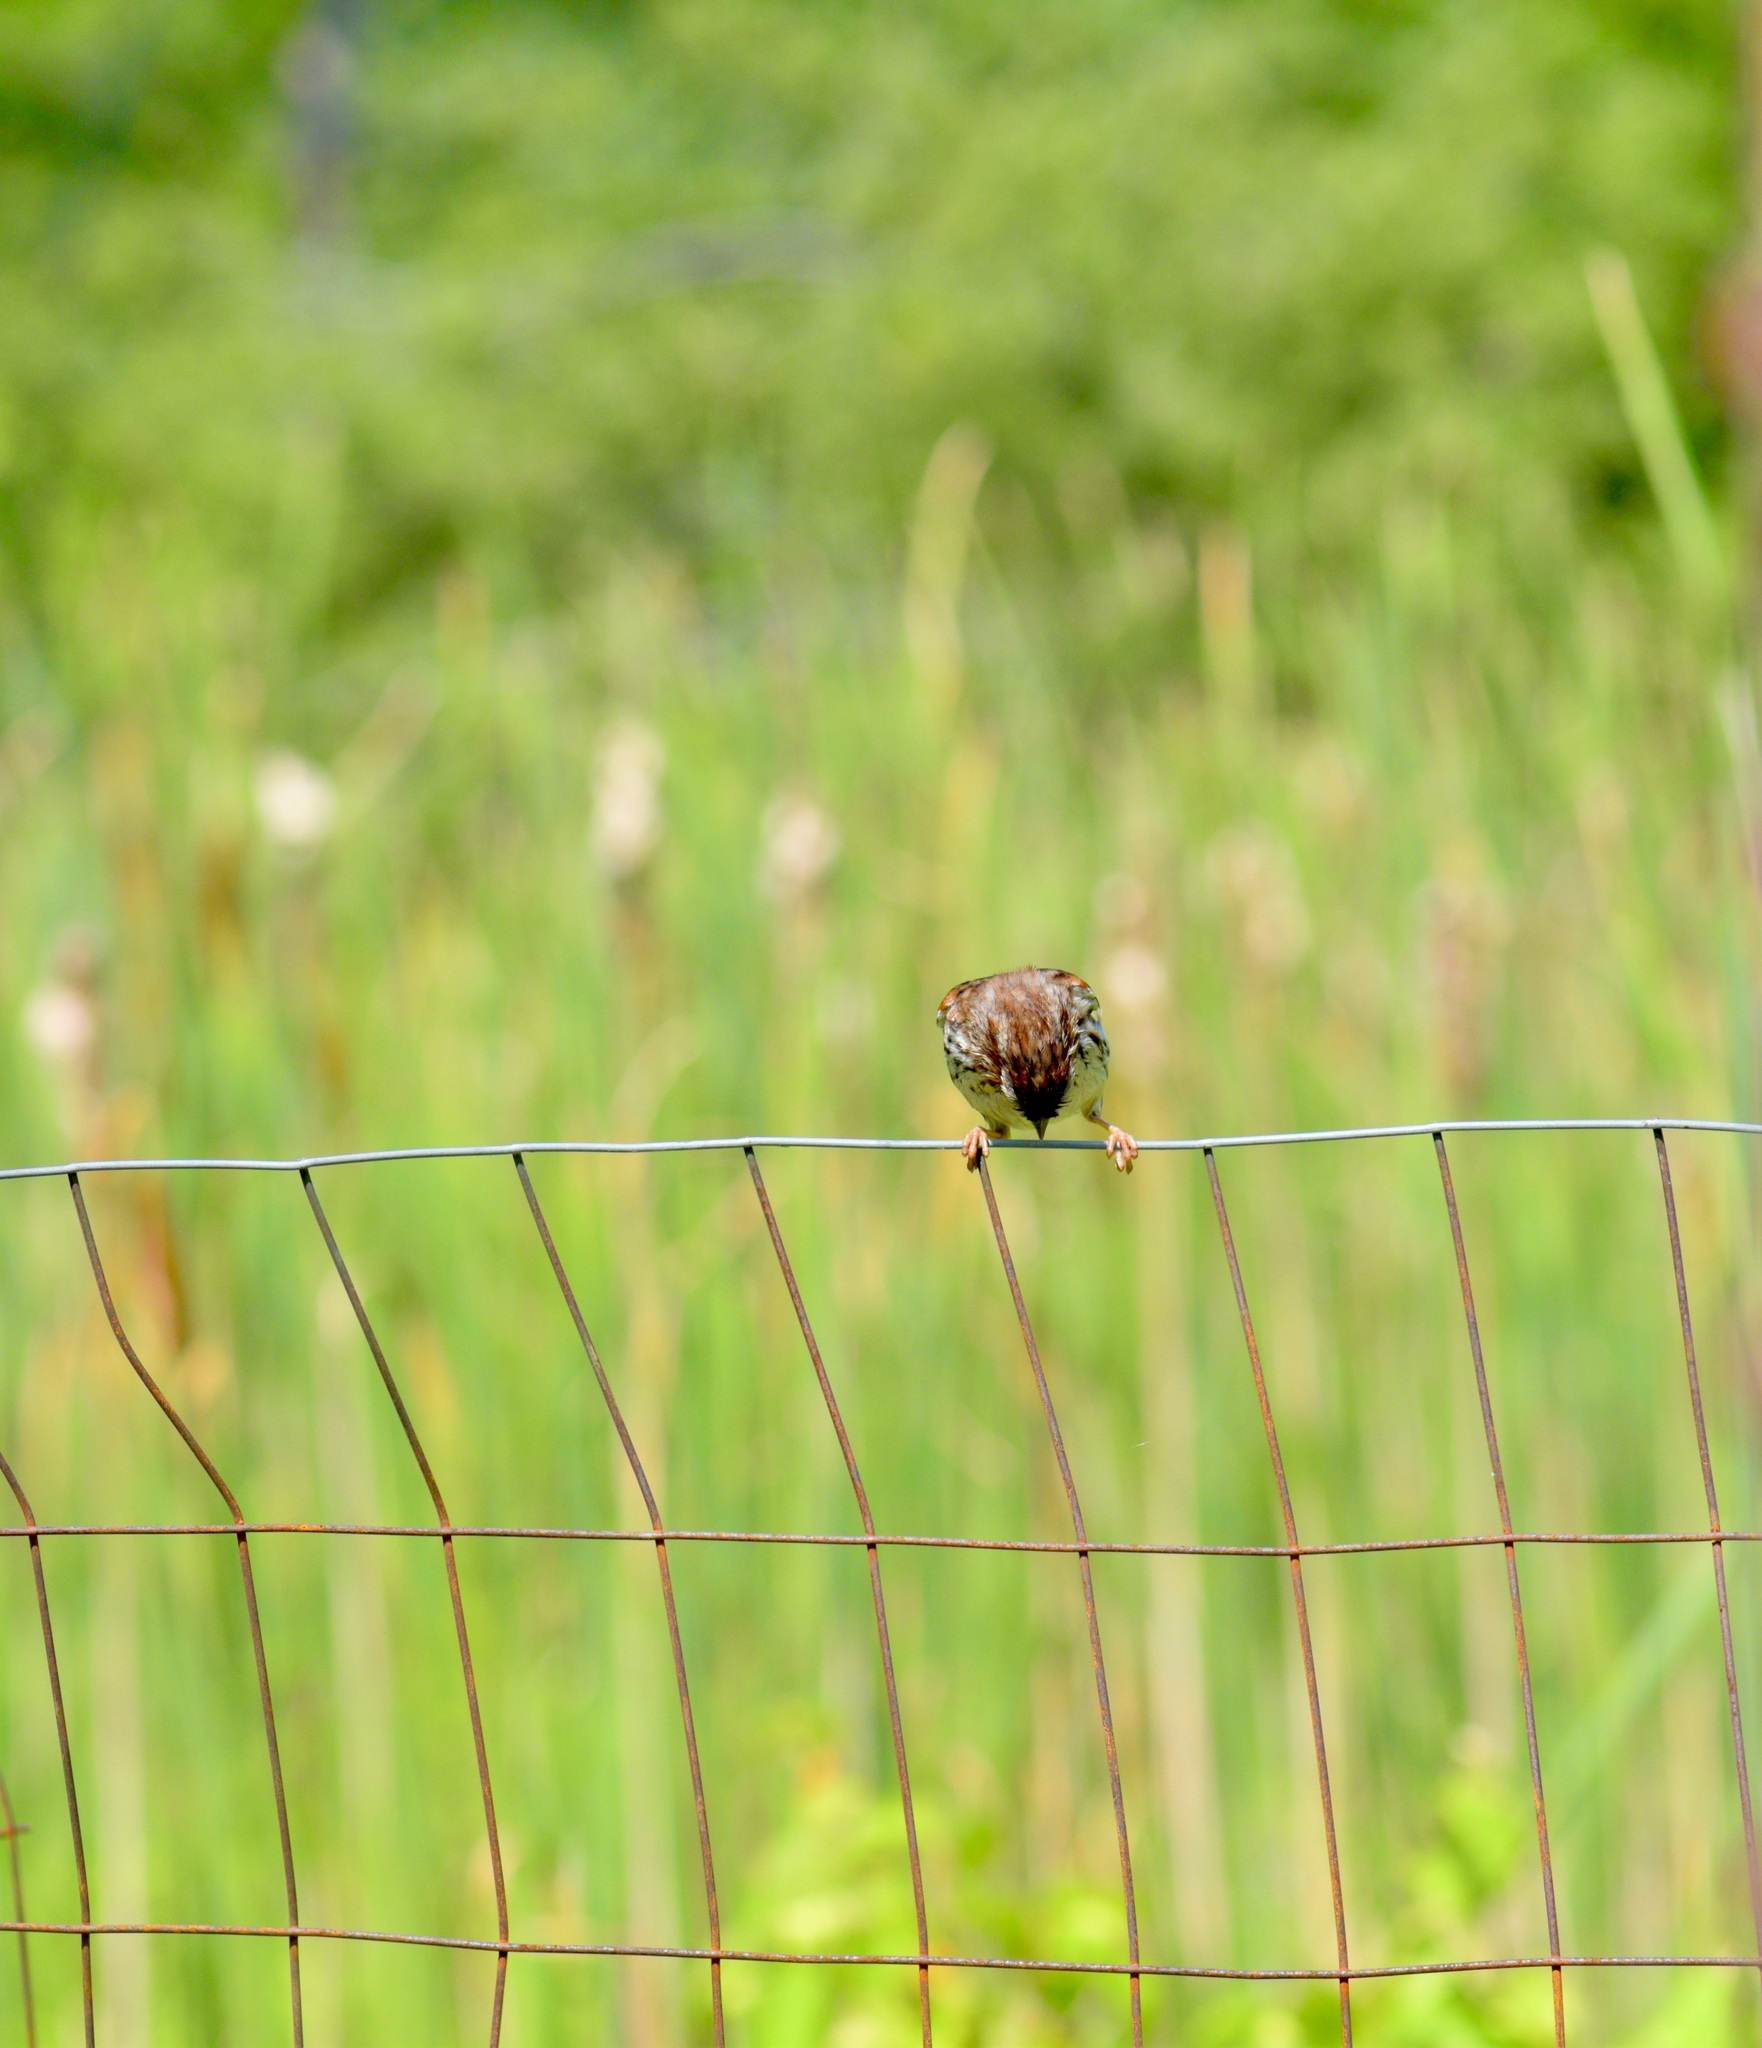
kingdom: Animalia
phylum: Chordata
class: Aves
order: Passeriformes
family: Passerellidae
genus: Melospiza
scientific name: Melospiza melodia
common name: Song sparrow
